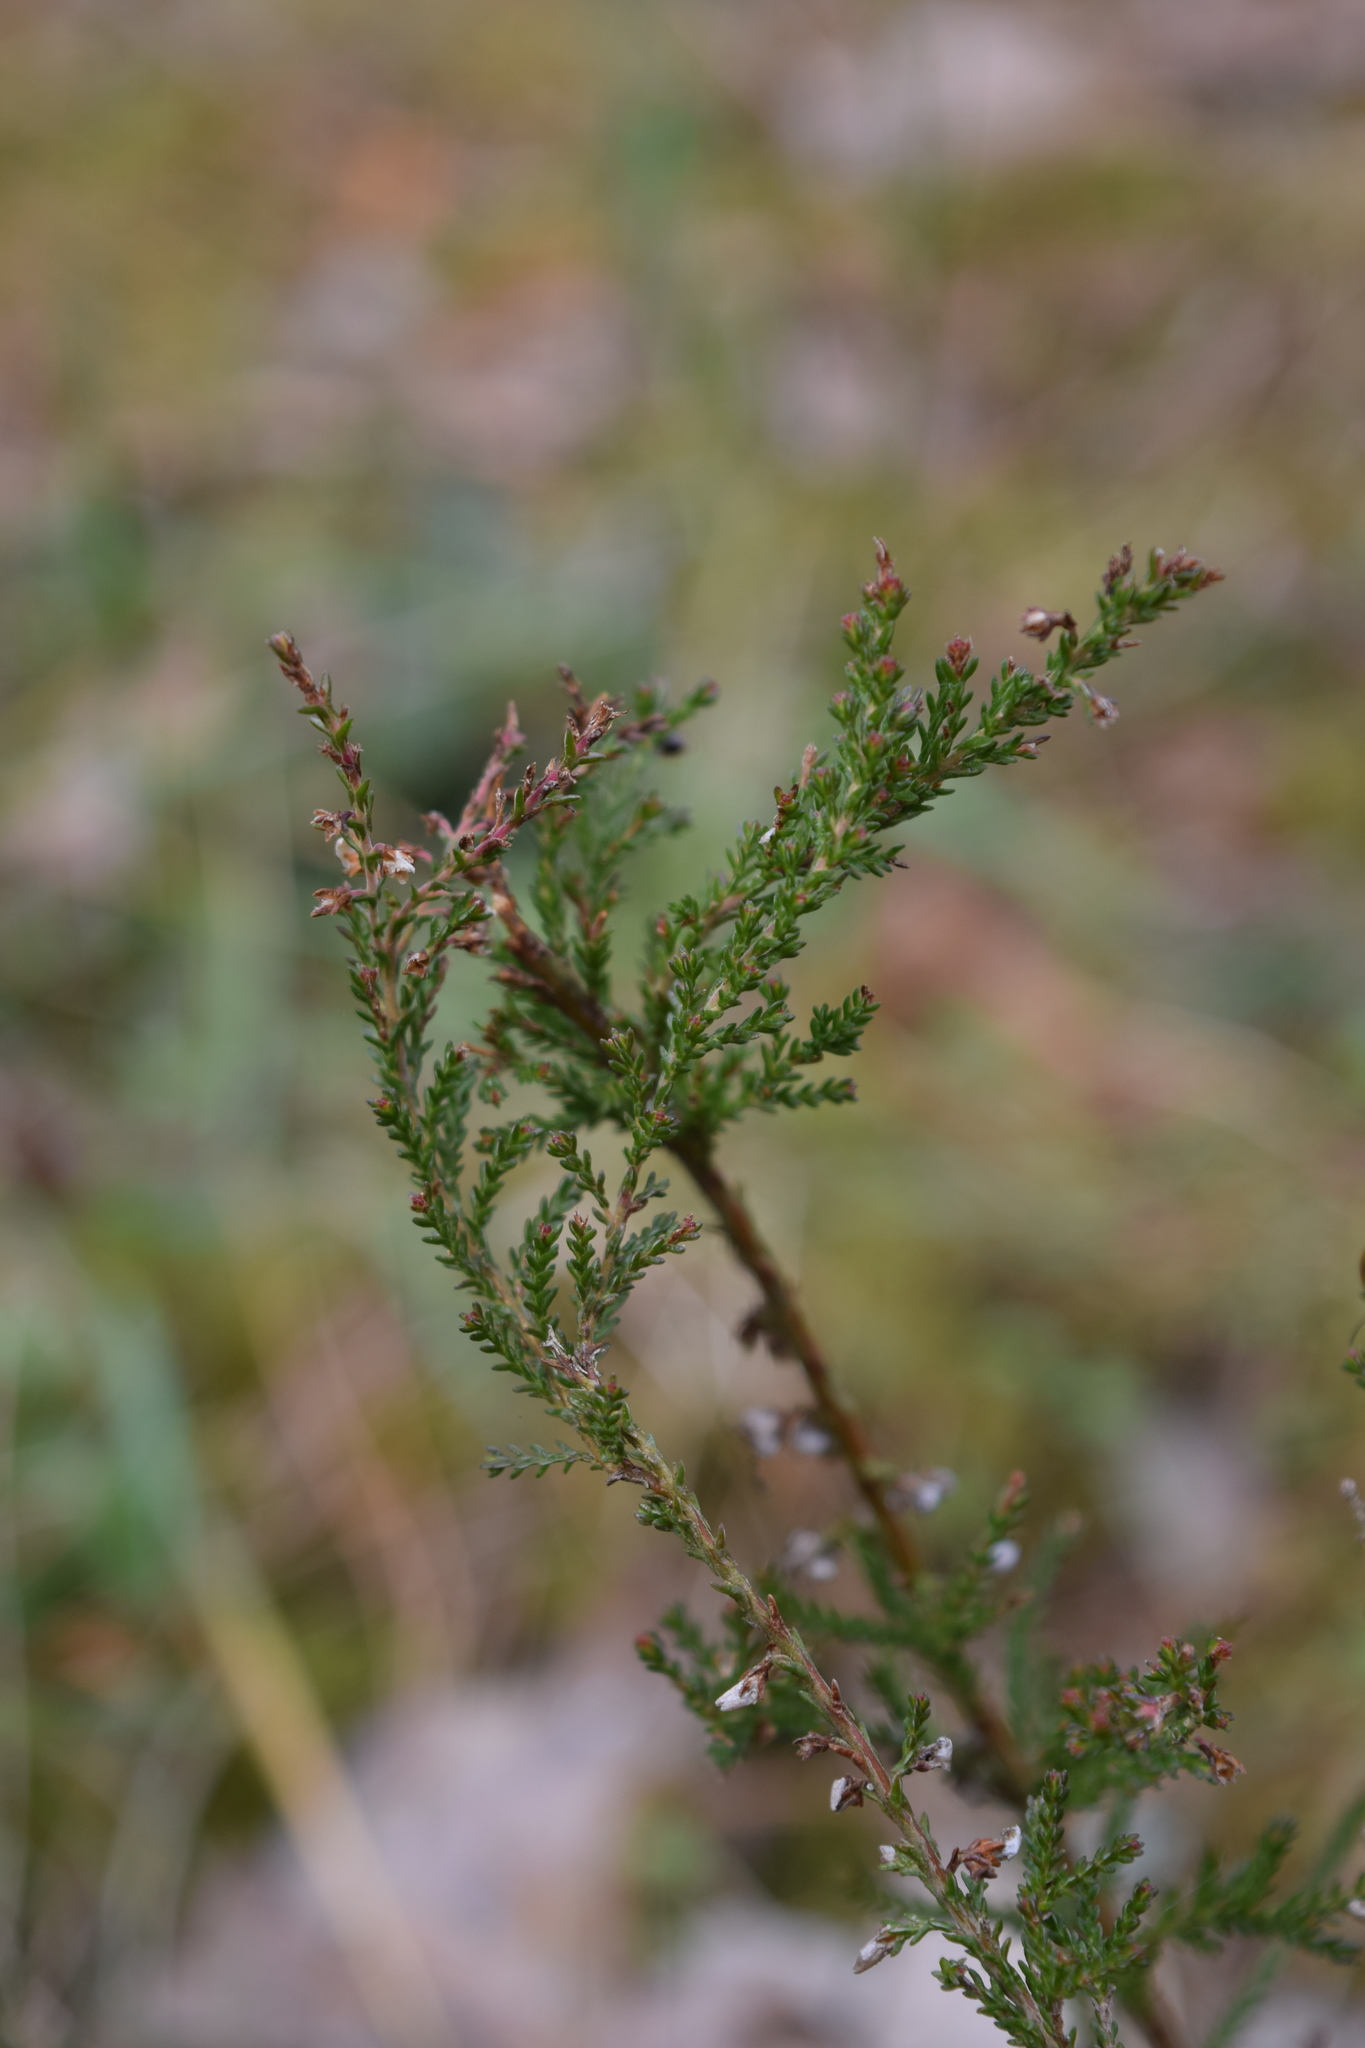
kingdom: Plantae
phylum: Tracheophyta
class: Magnoliopsida
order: Ericales
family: Ericaceae
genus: Calluna
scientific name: Calluna vulgaris
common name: Heather
